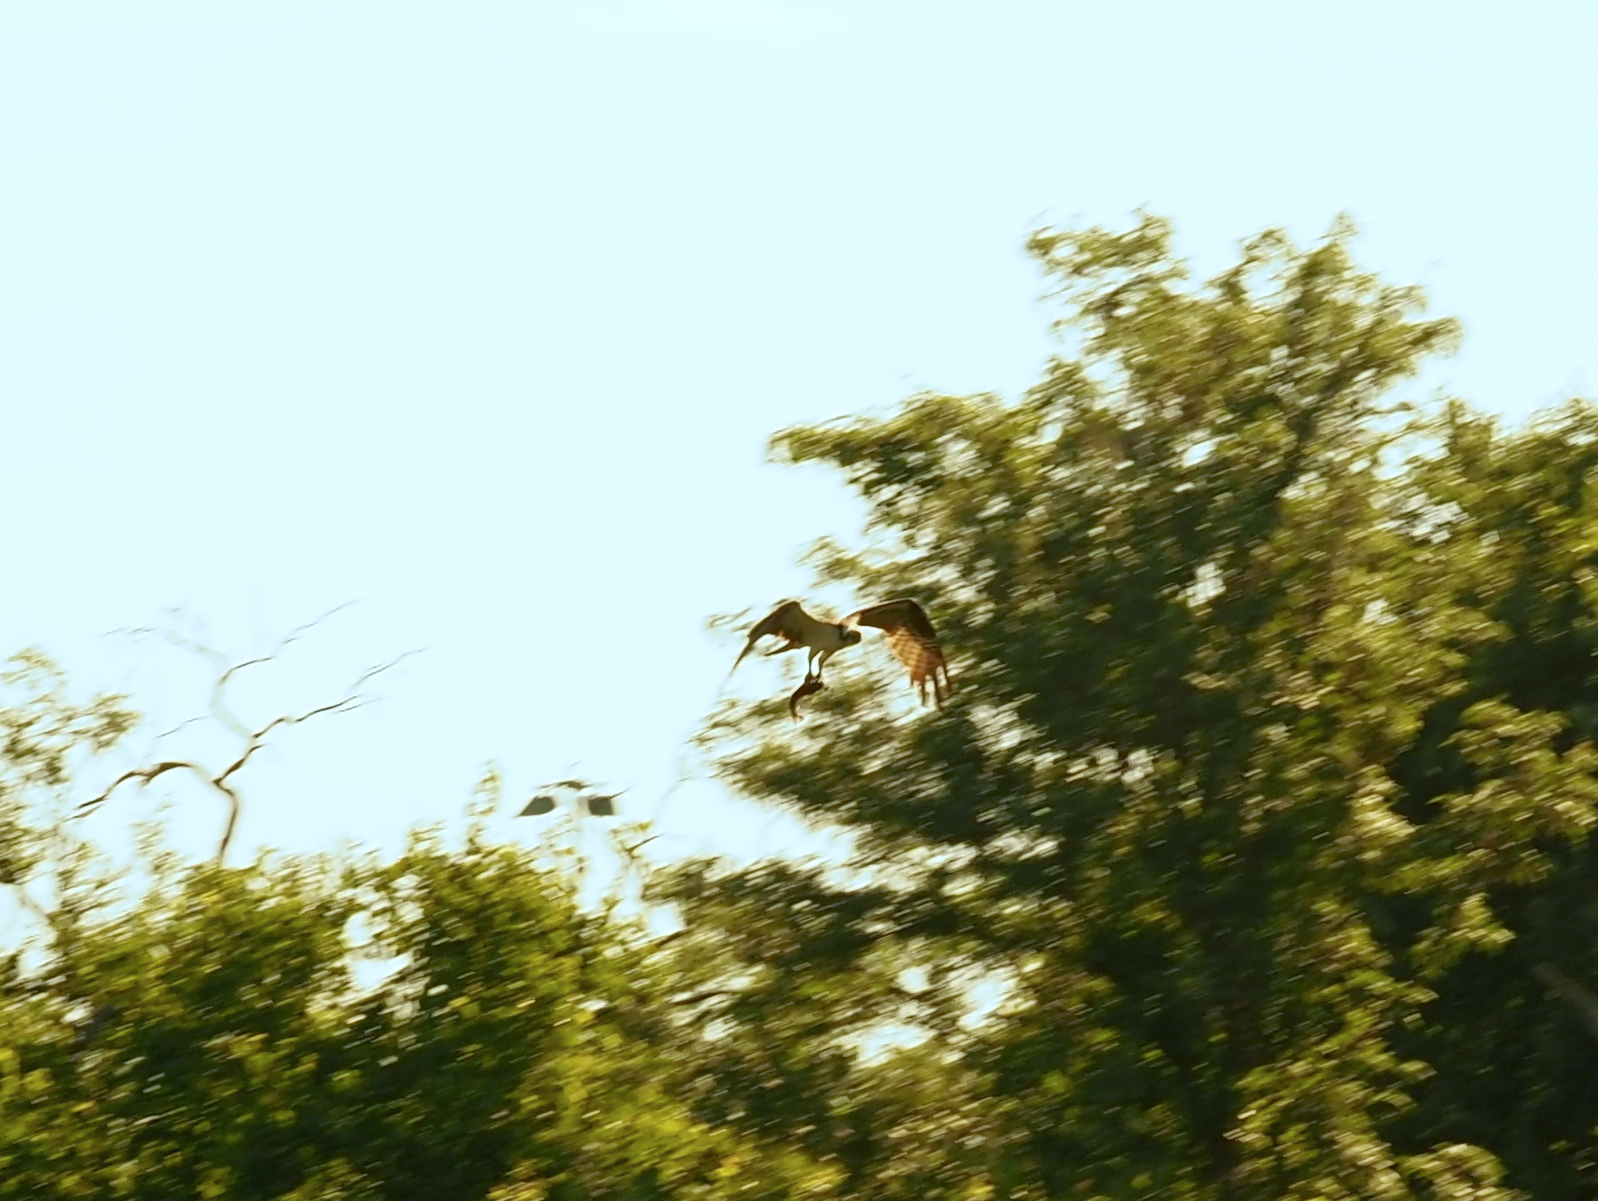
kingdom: Animalia
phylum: Chordata
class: Aves
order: Accipitriformes
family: Pandionidae
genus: Pandion
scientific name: Pandion haliaetus
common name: Osprey
